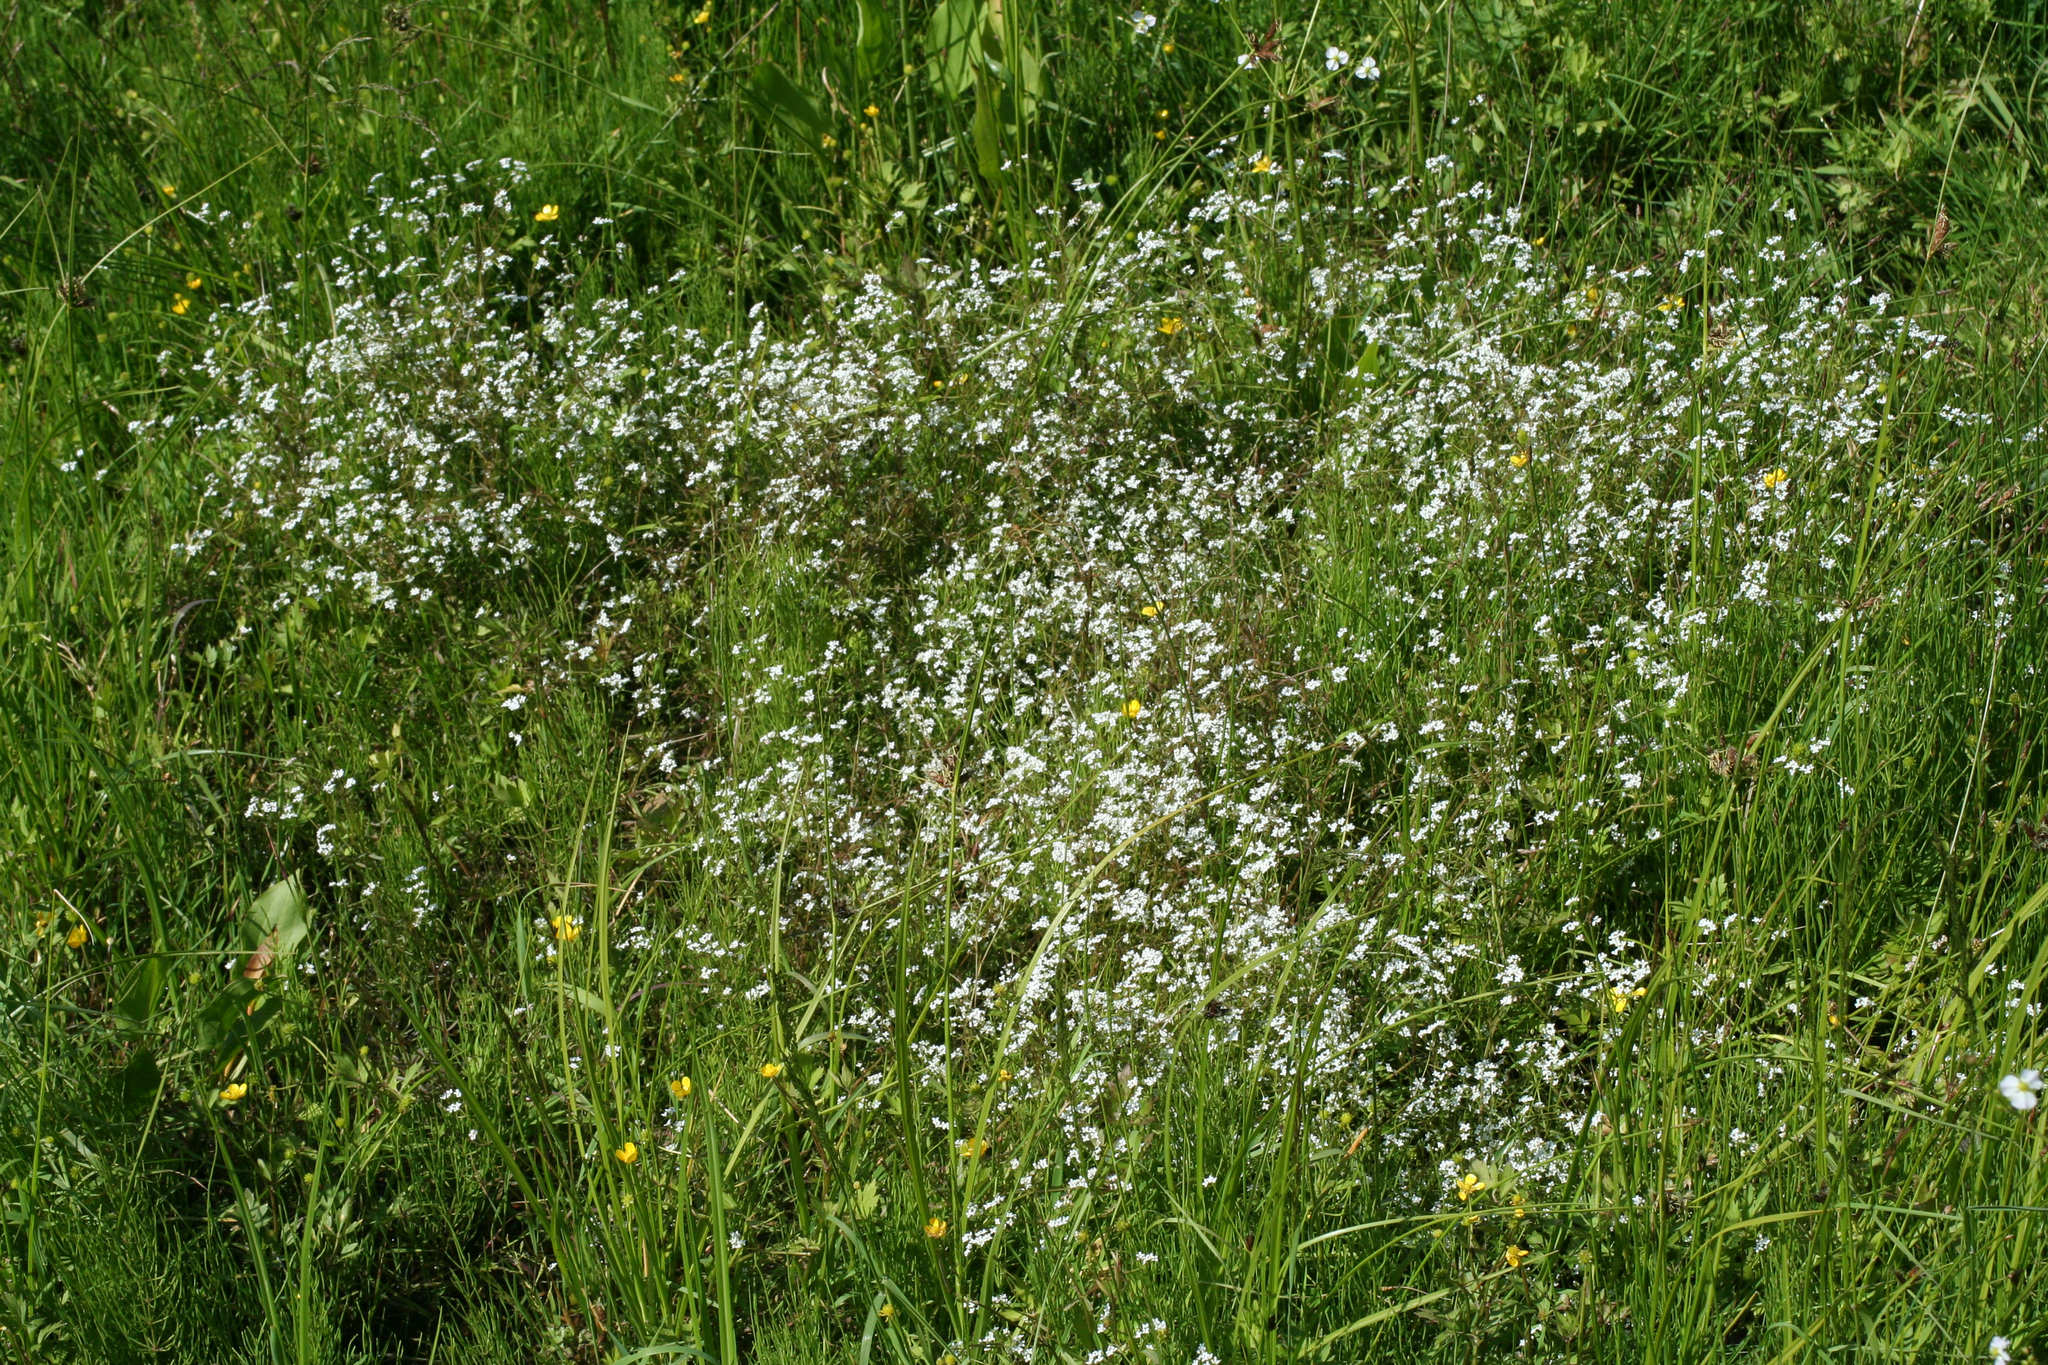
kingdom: Plantae
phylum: Tracheophyta
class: Magnoliopsida
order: Gentianales
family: Rubiaceae
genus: Galium
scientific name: Galium palustre
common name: Common marsh-bedstraw
